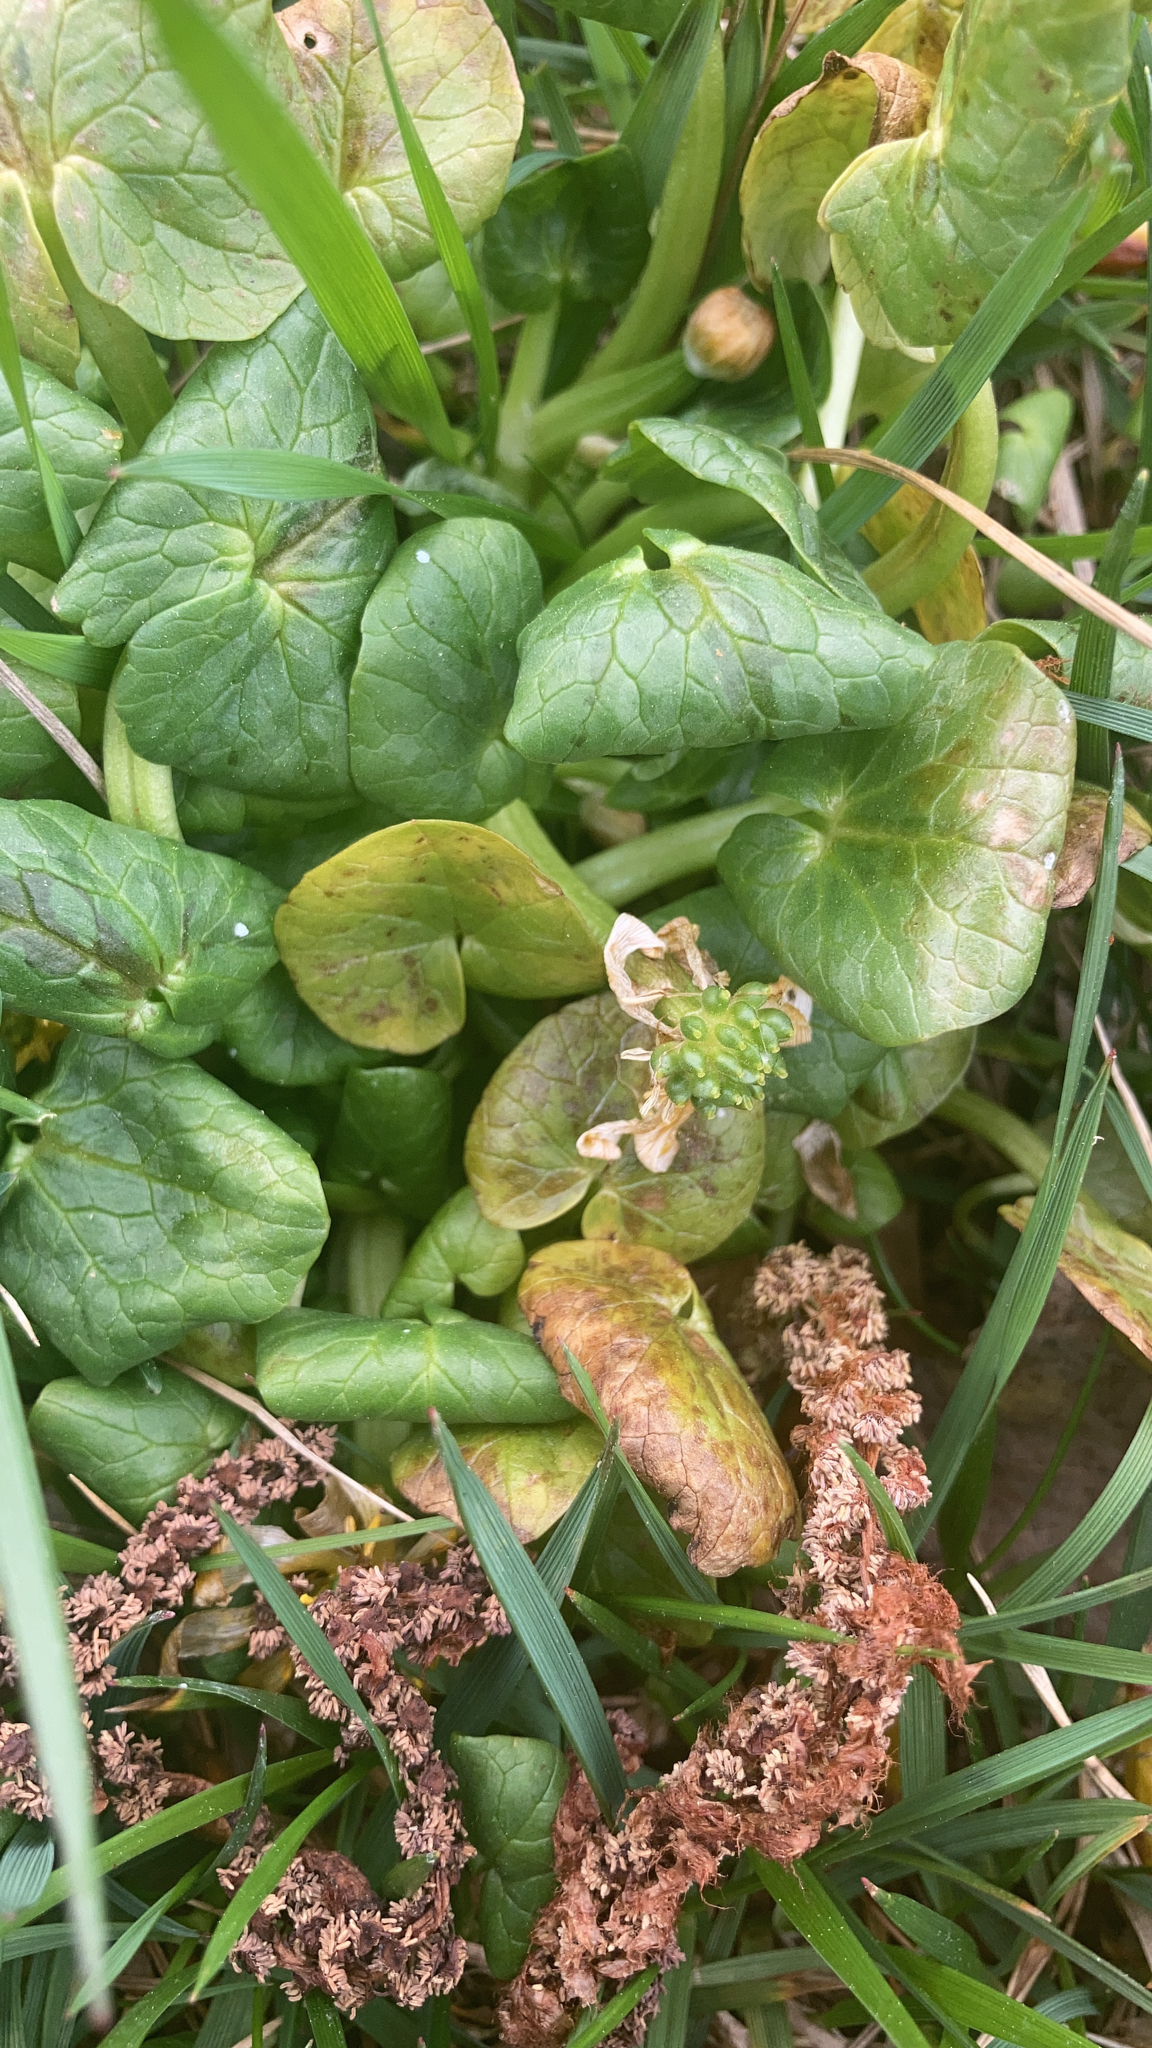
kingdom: Plantae
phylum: Tracheophyta
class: Magnoliopsida
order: Ranunculales
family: Ranunculaceae
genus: Ficaria
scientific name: Ficaria verna
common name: Lesser celandine
